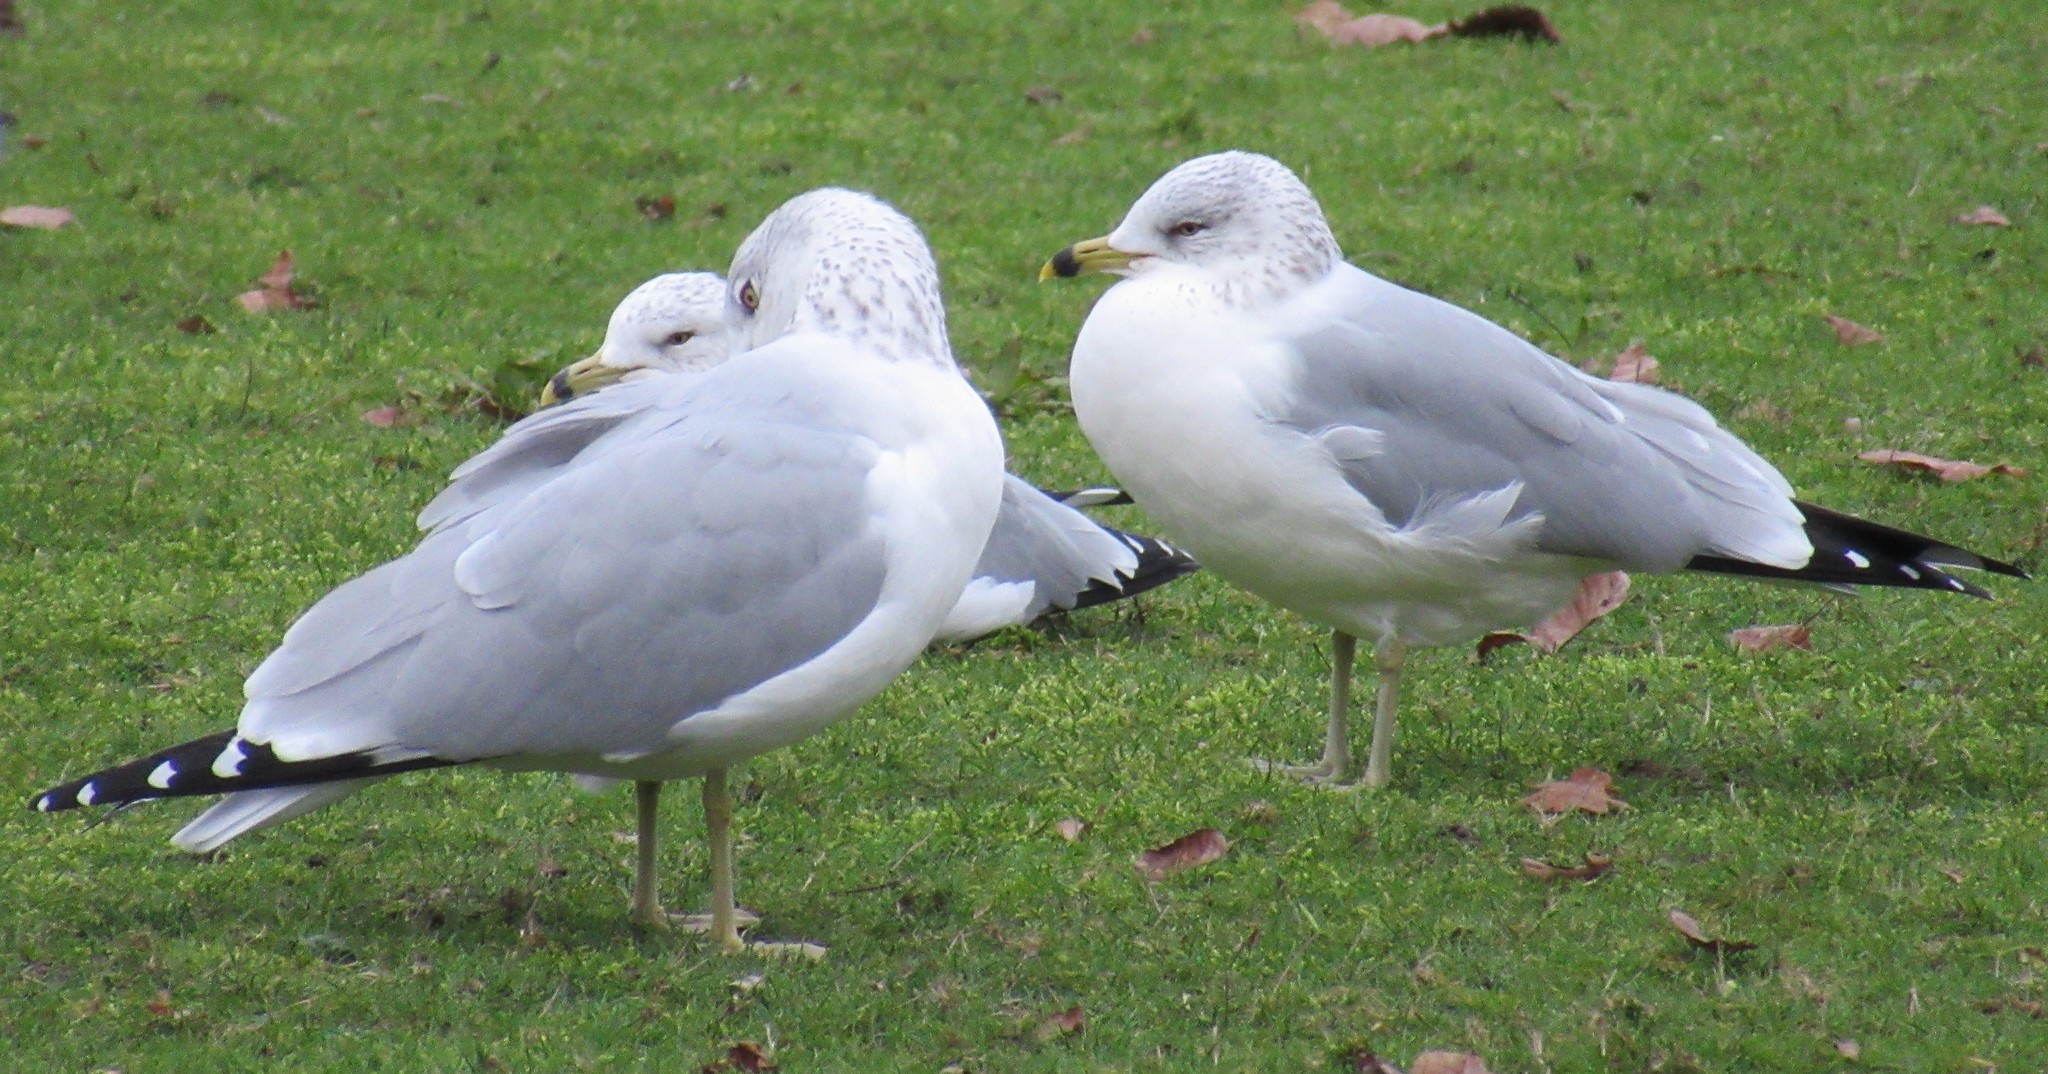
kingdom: Animalia
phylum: Chordata
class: Aves
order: Charadriiformes
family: Laridae
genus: Larus
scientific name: Larus delawarensis
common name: Ring-billed gull
